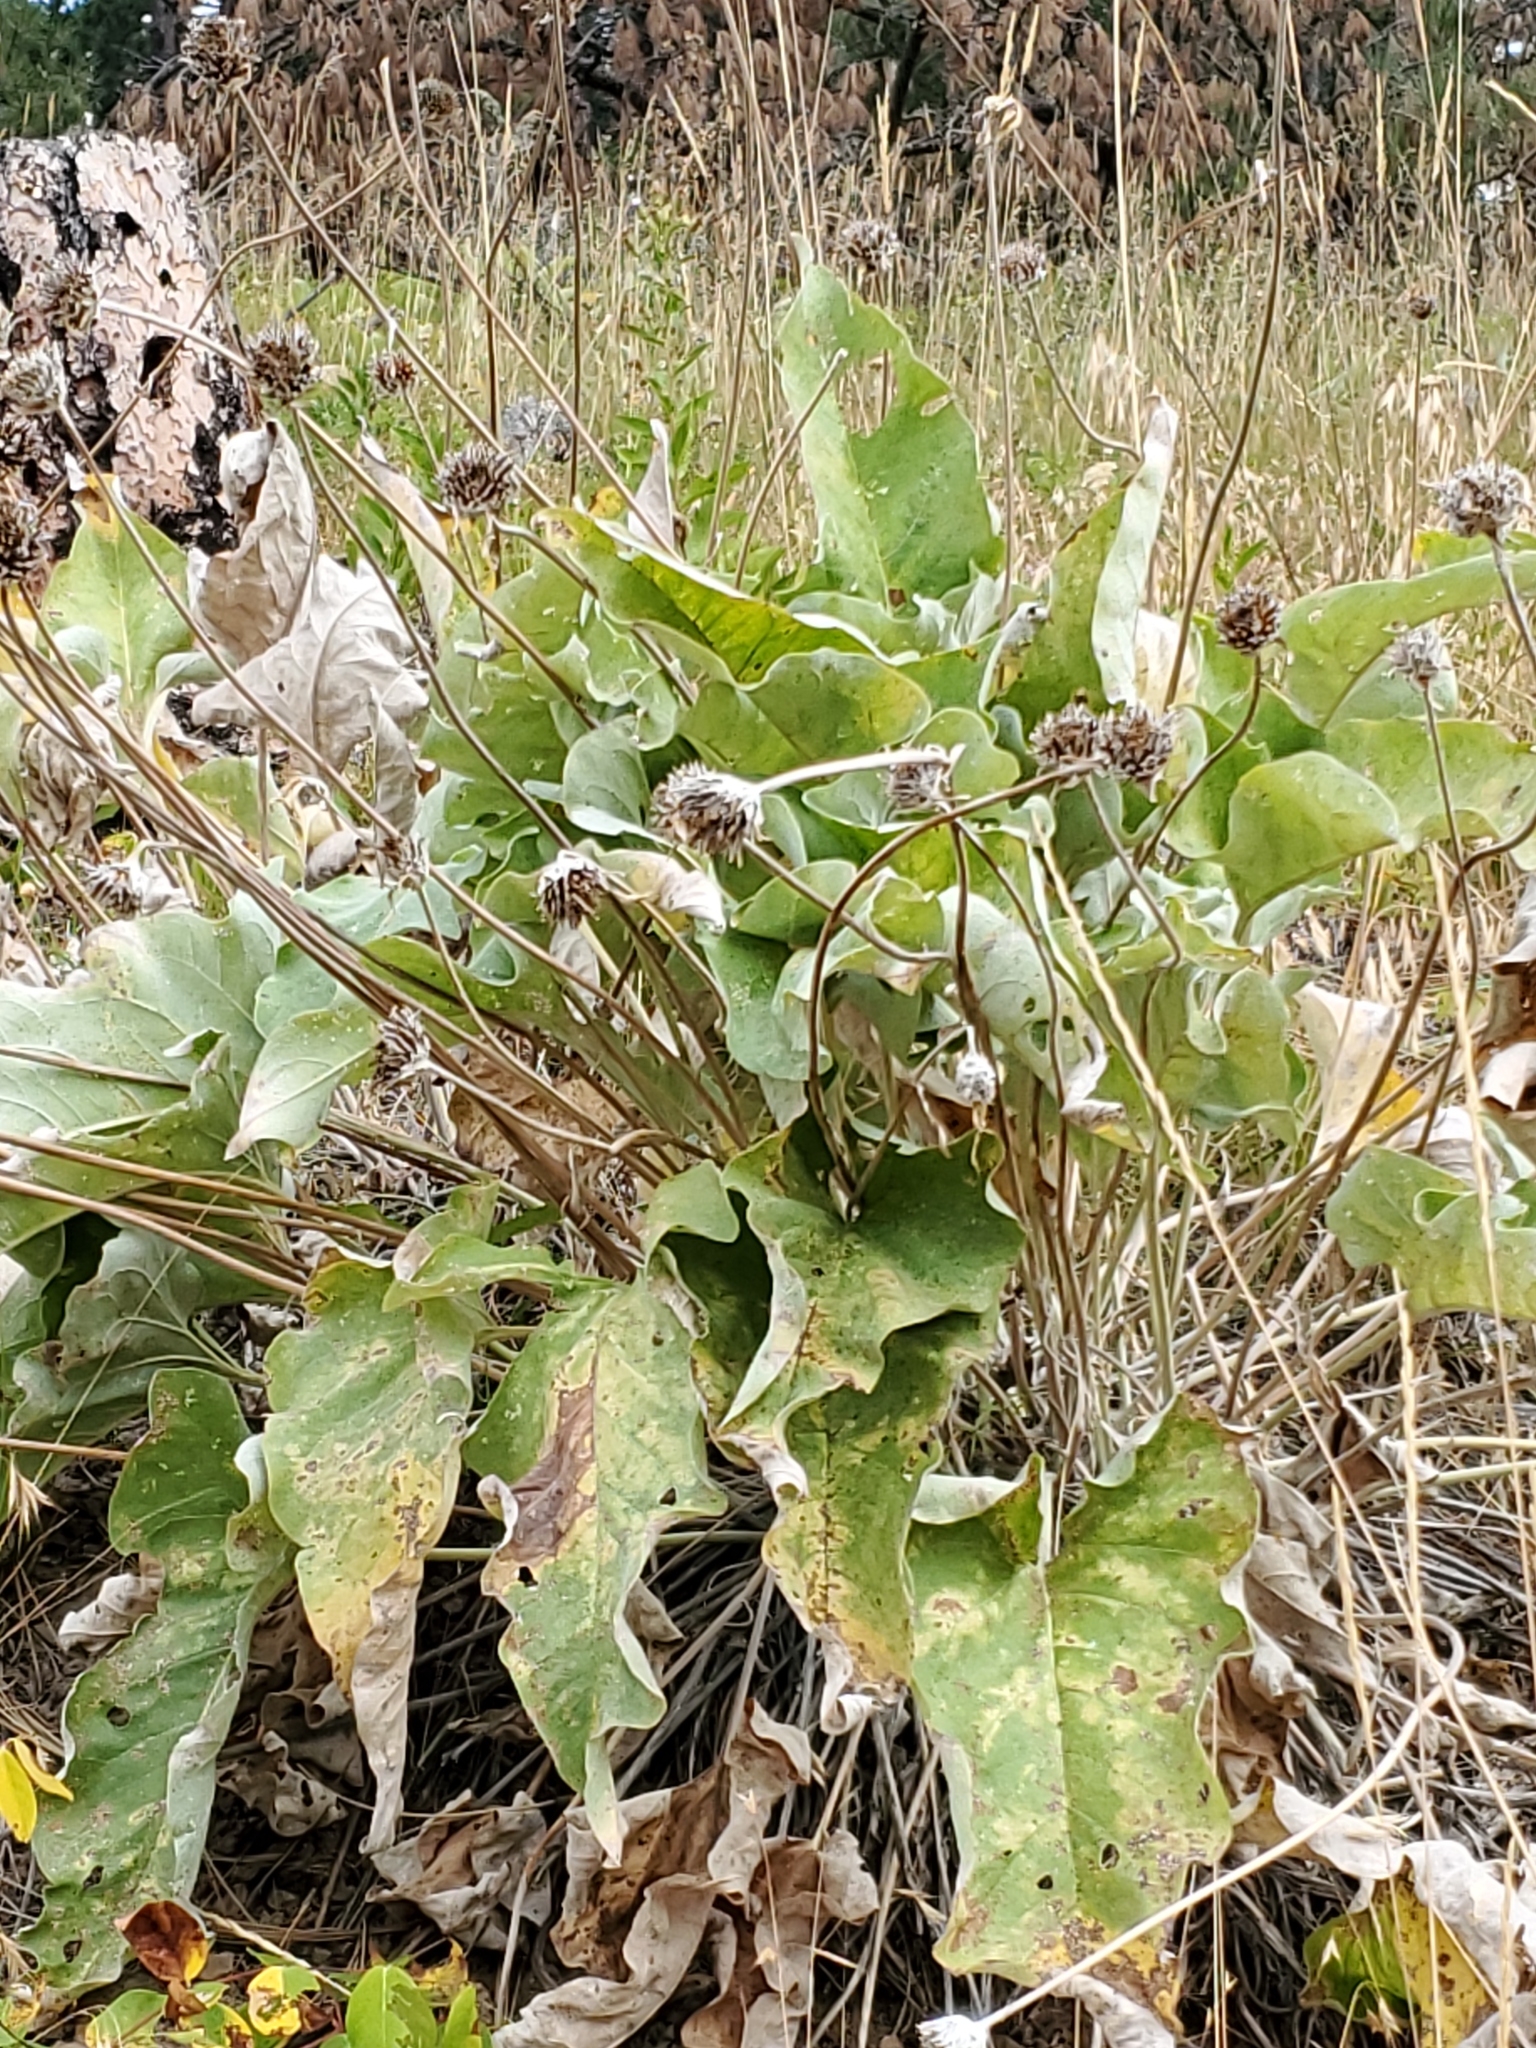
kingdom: Plantae
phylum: Tracheophyta
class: Magnoliopsida
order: Asterales
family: Asteraceae
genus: Wyethia
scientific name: Wyethia sagittata
